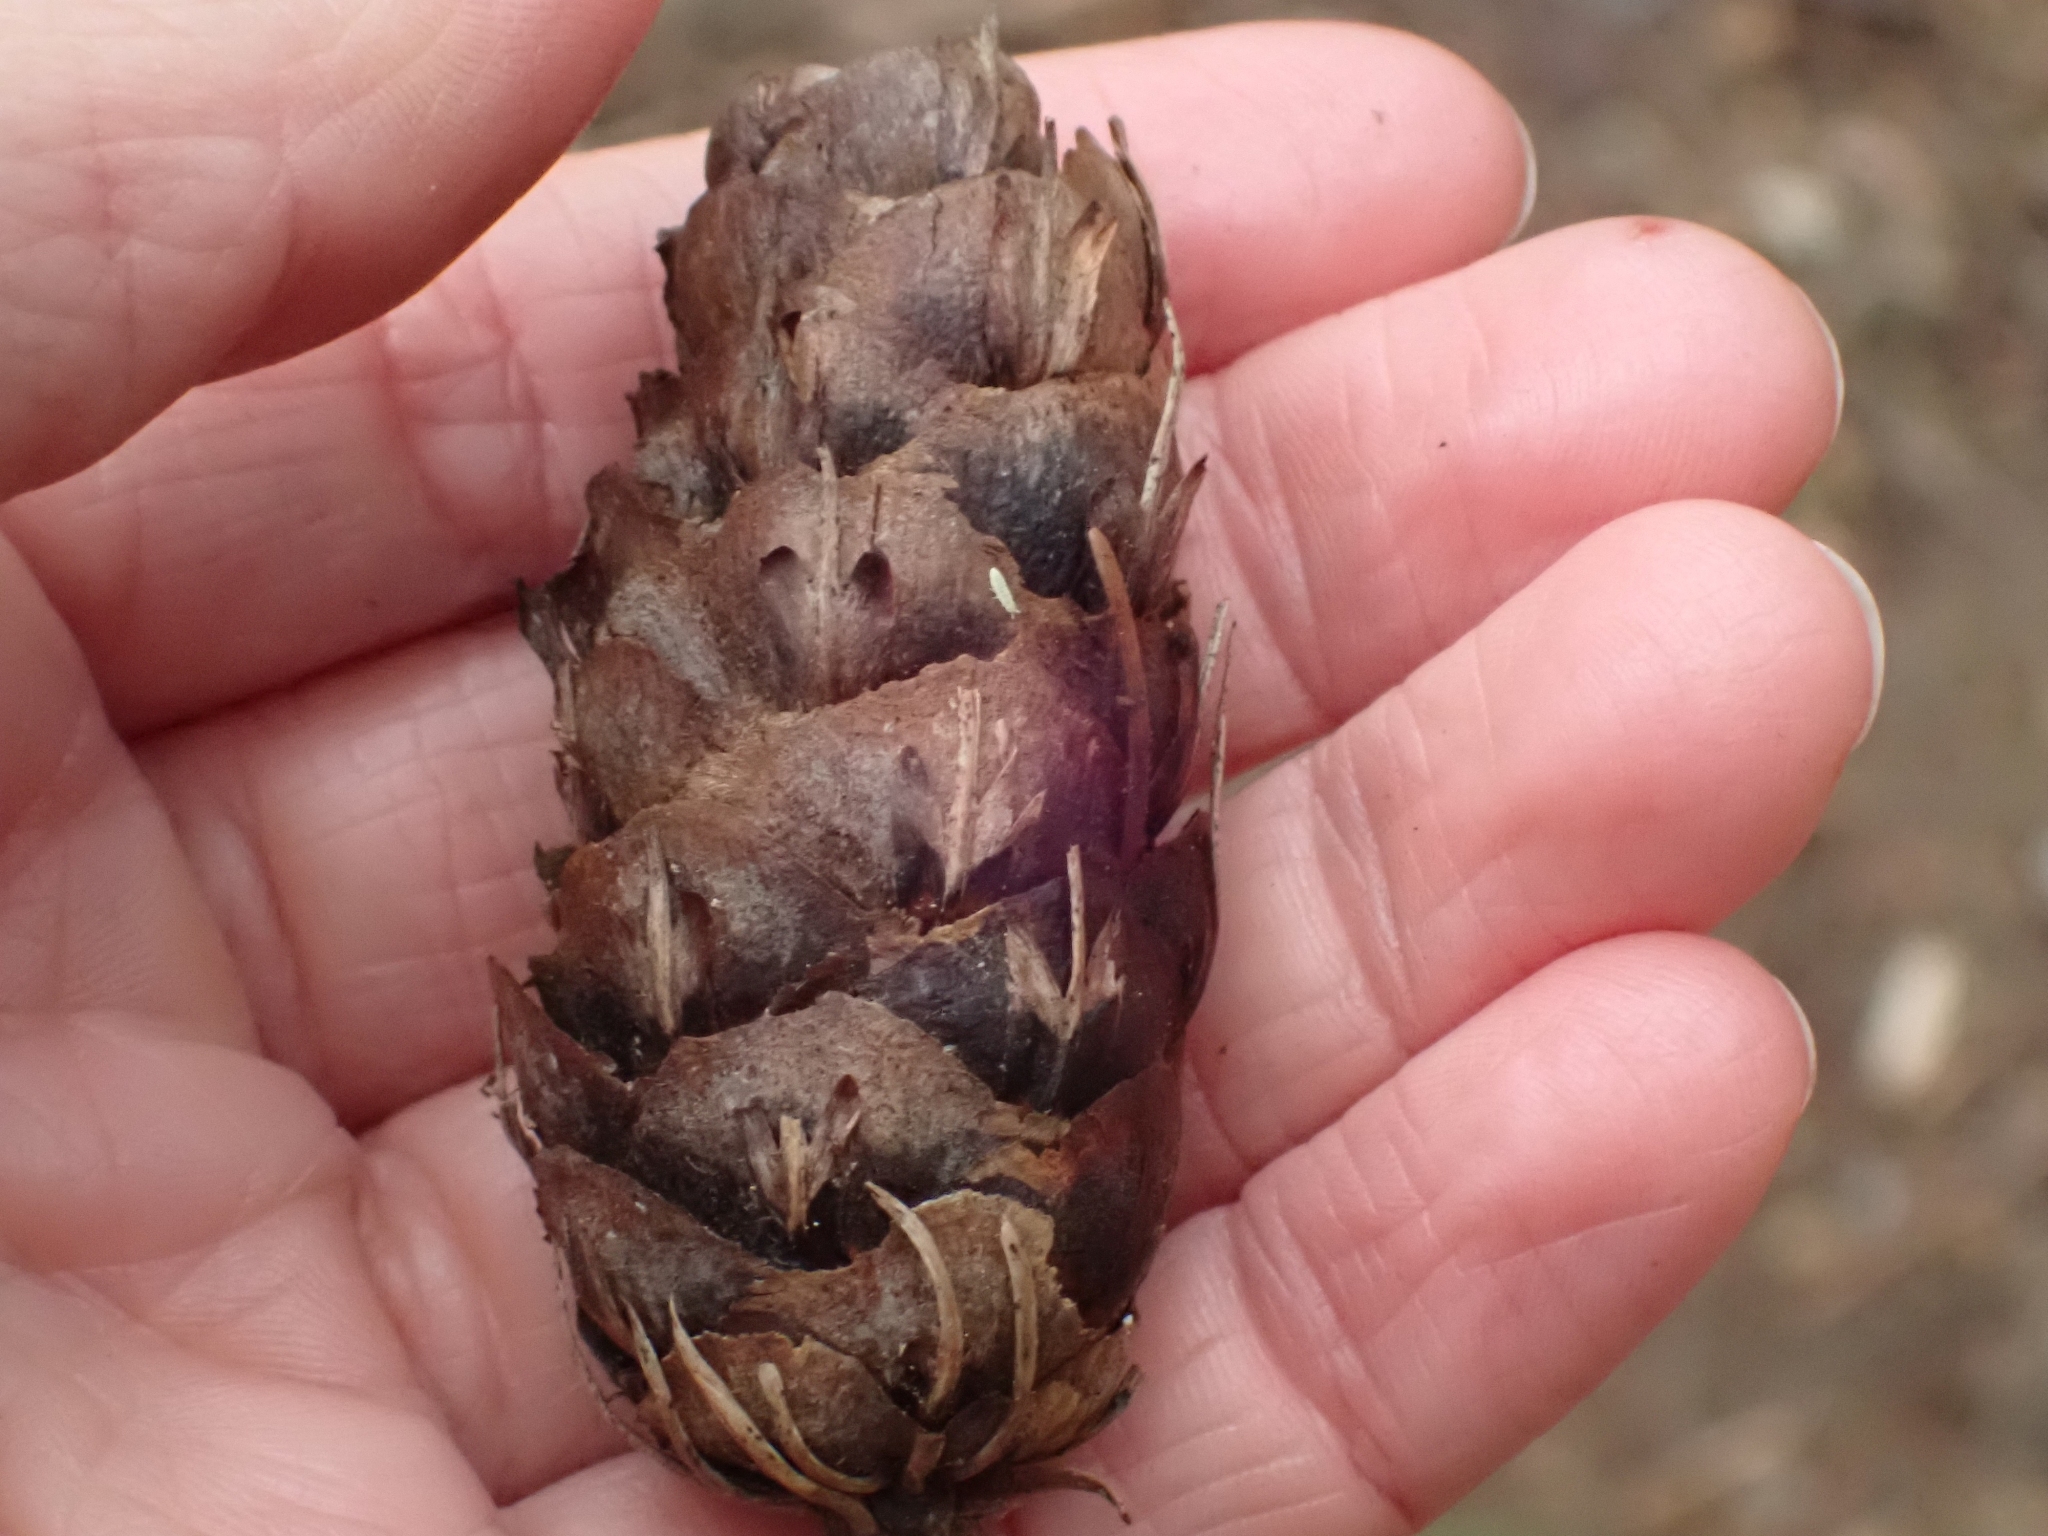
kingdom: Plantae
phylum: Tracheophyta
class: Pinopsida
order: Pinales
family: Pinaceae
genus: Pseudotsuga
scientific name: Pseudotsuga menziesii
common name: Douglas fir
